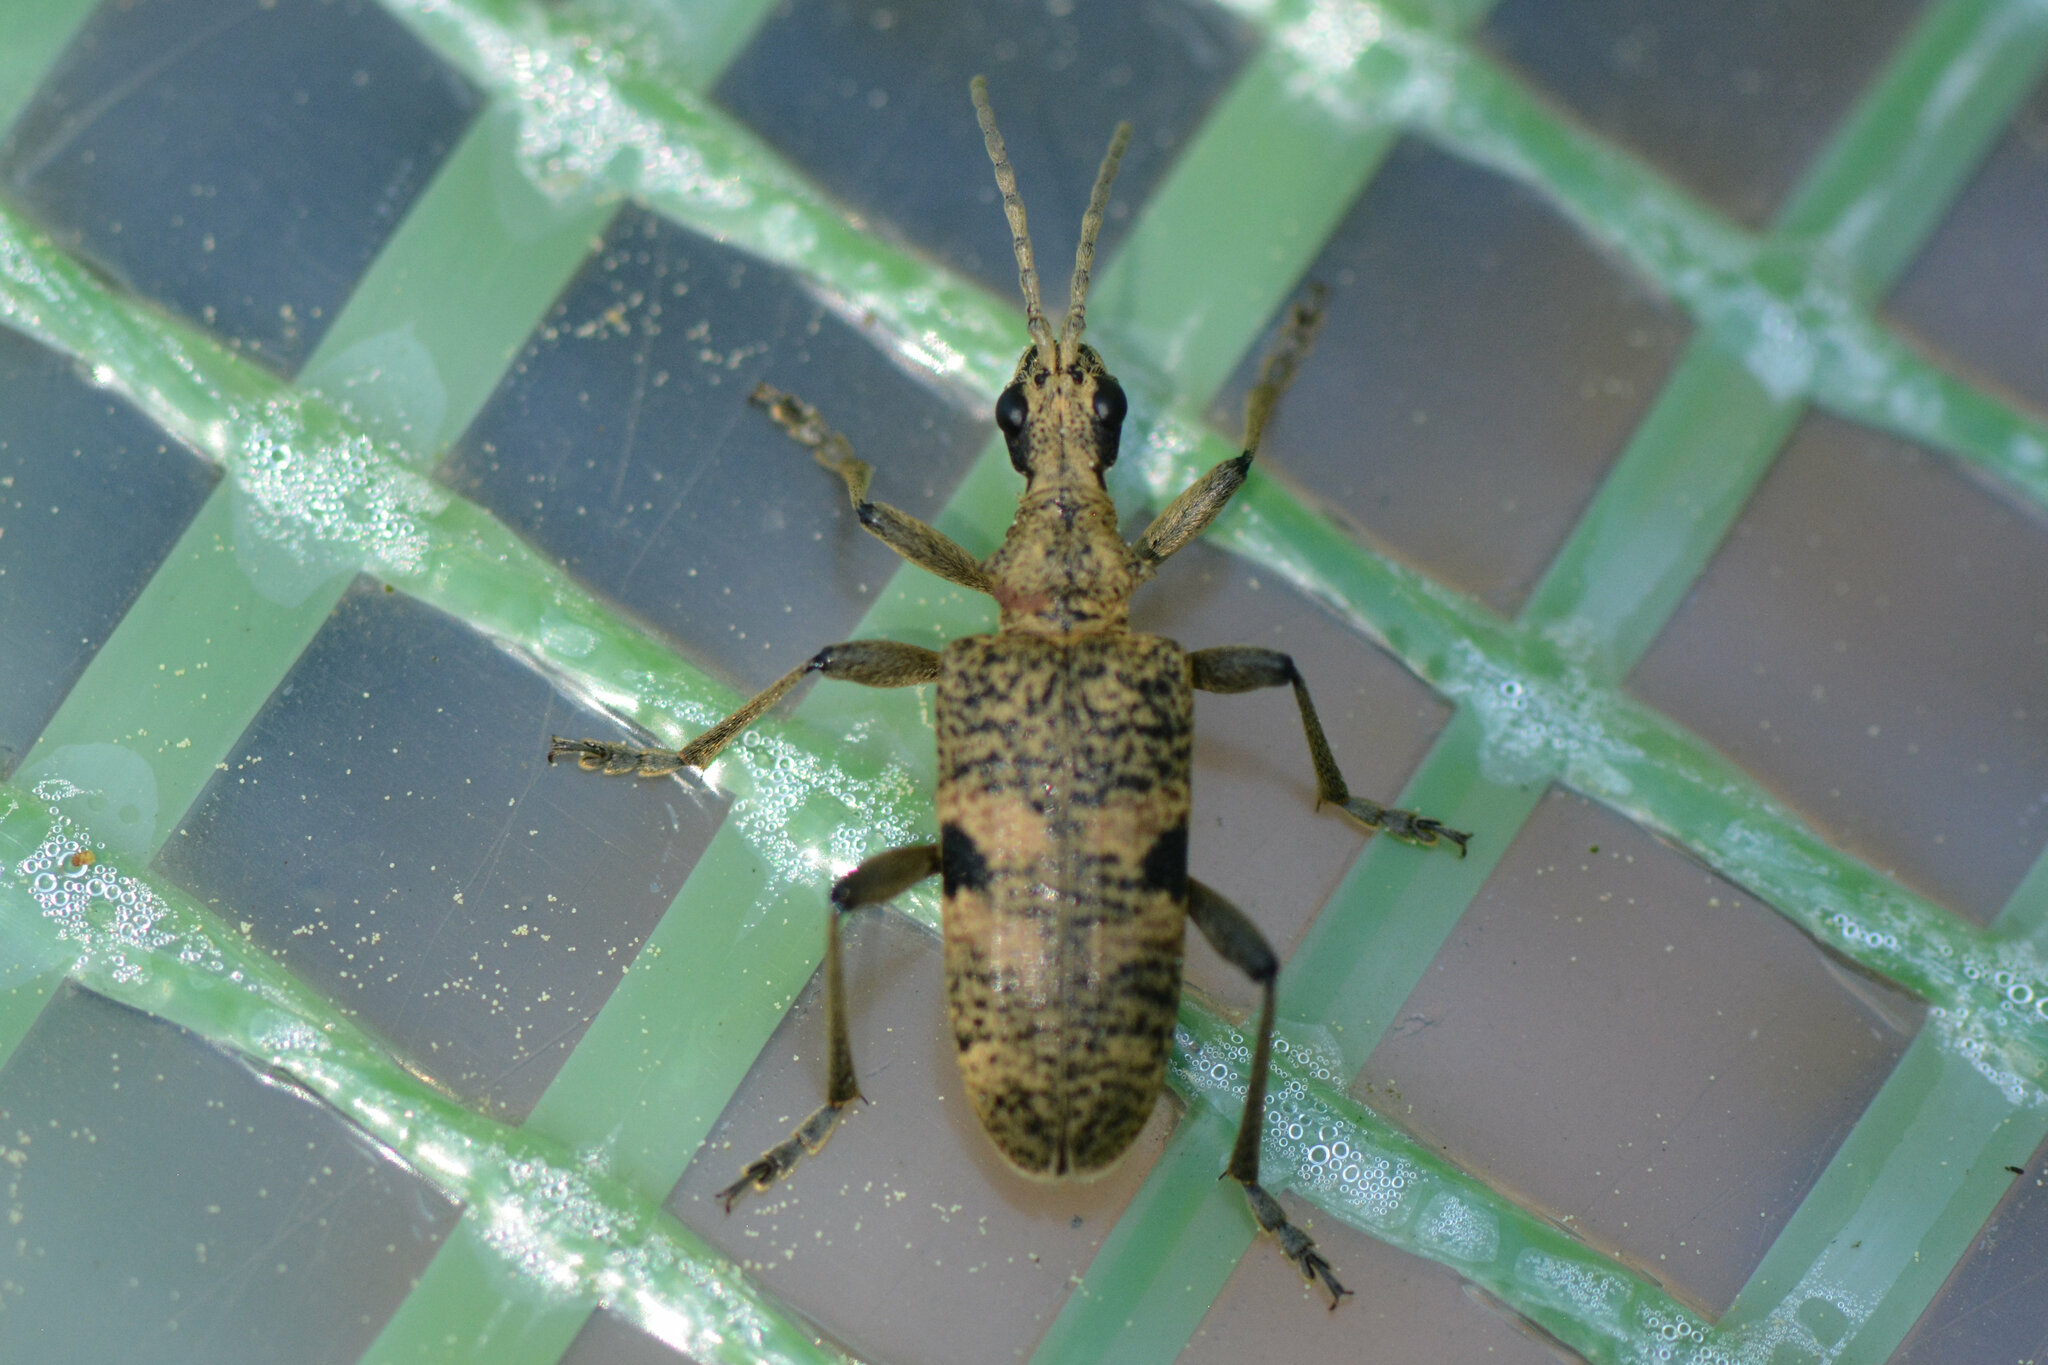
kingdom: Animalia
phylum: Arthropoda
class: Insecta
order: Coleoptera
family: Cerambycidae
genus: Rhagium
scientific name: Rhagium mordax
